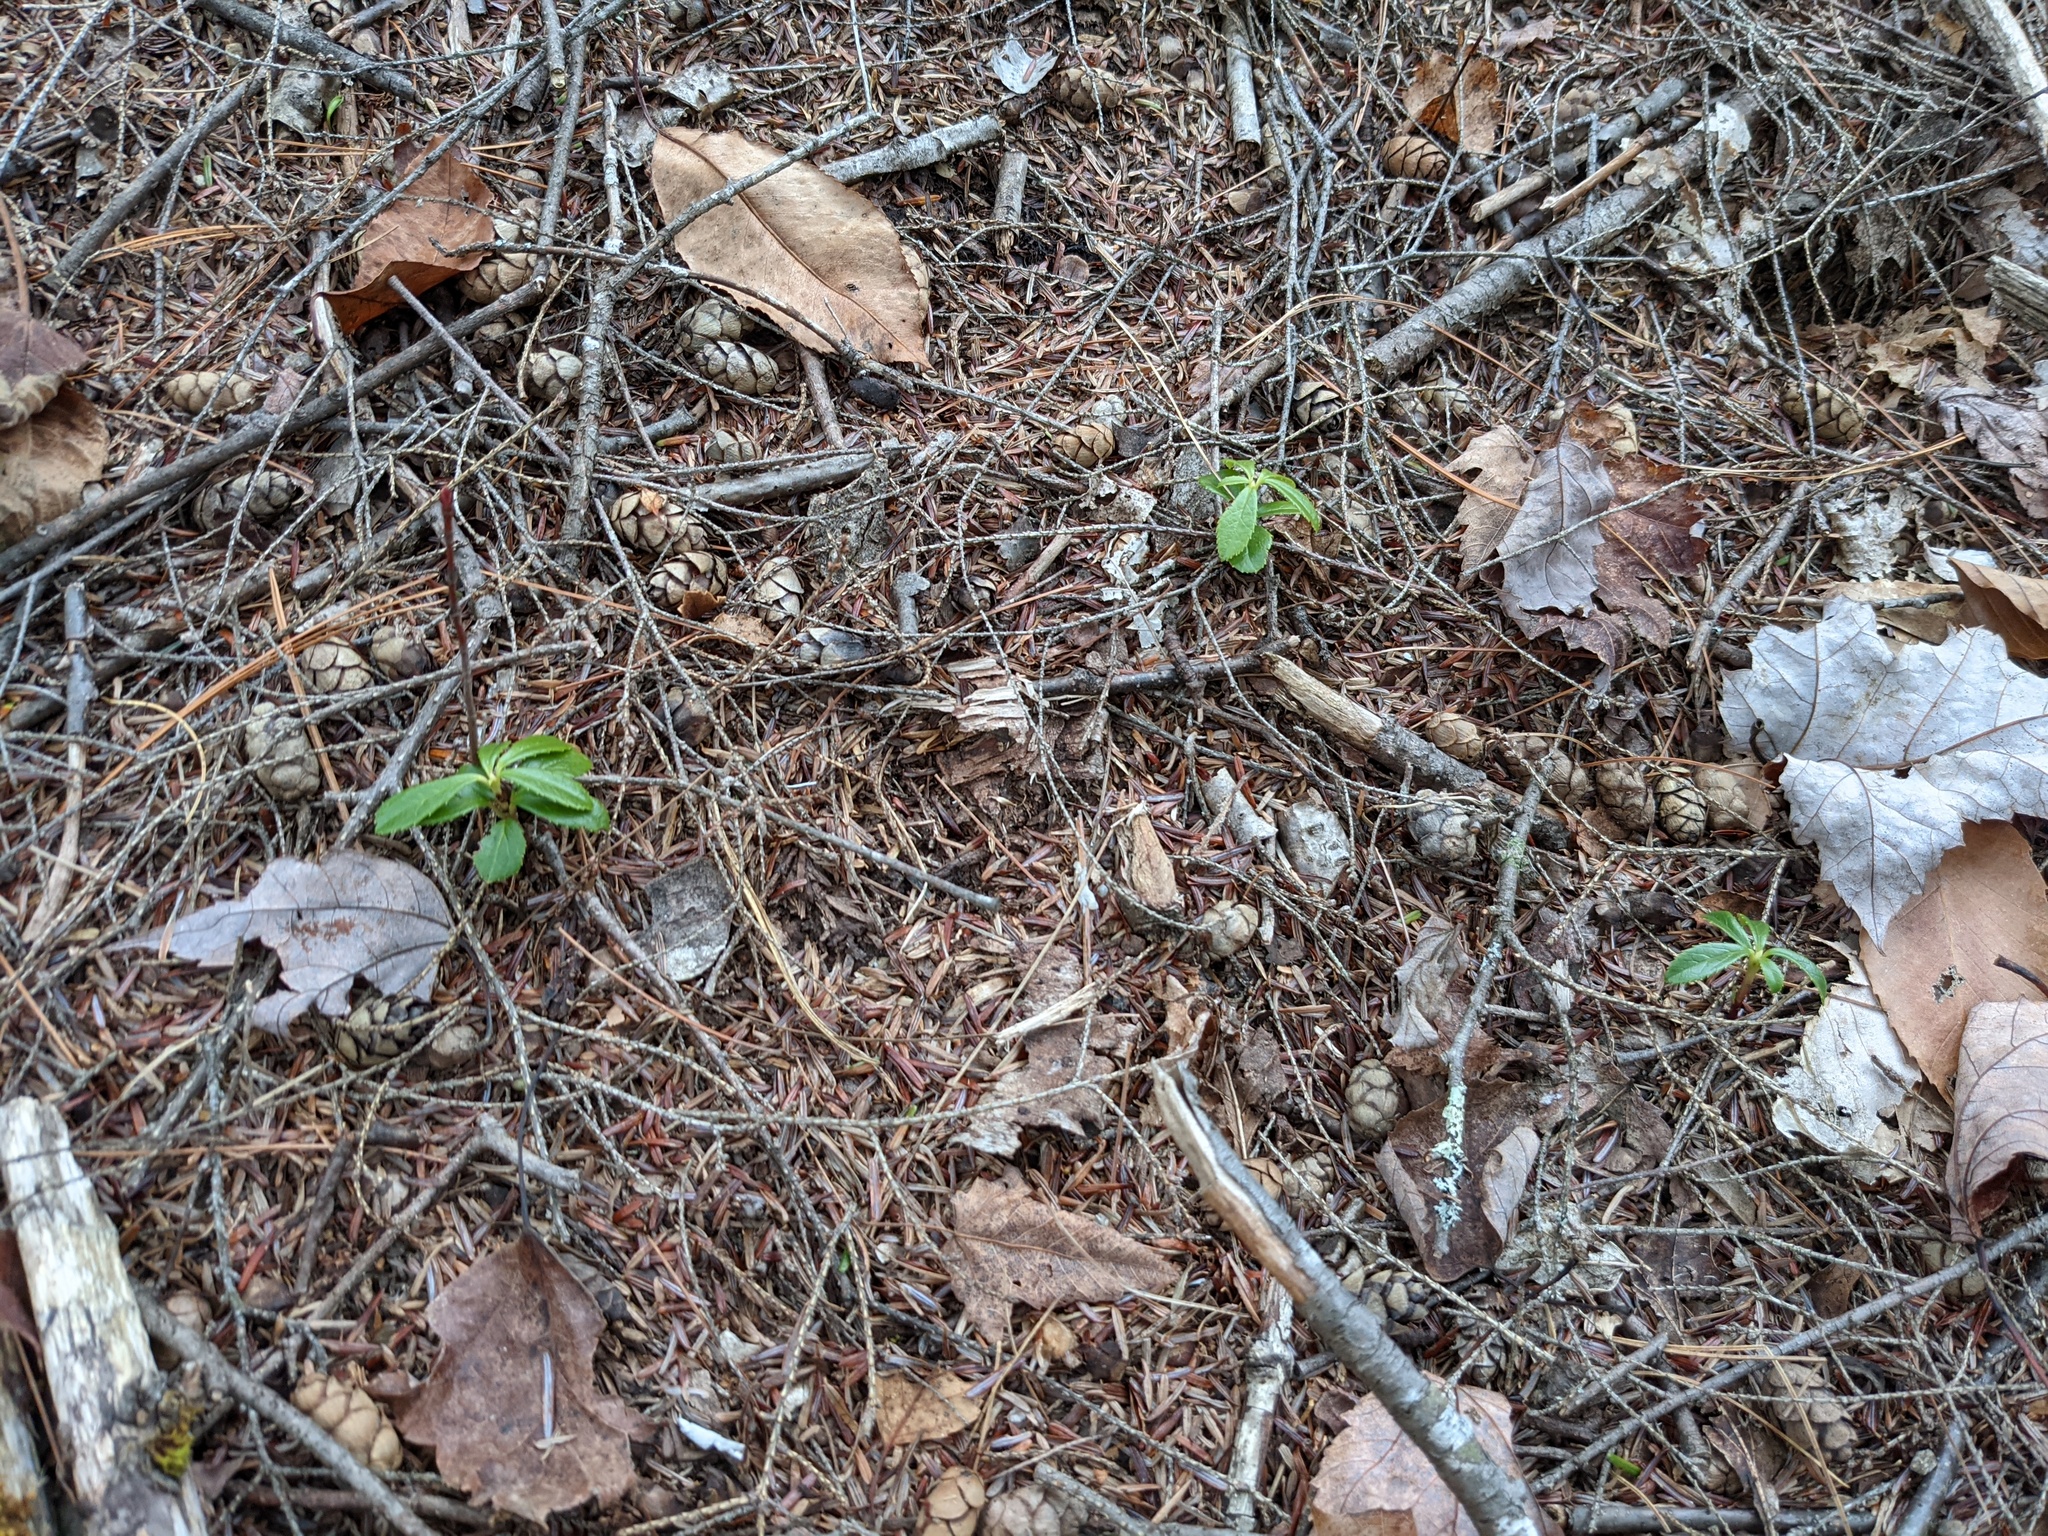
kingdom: Plantae
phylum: Tracheophyta
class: Magnoliopsida
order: Ericales
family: Ericaceae
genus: Chimaphila
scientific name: Chimaphila umbellata
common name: Pipsissewa
